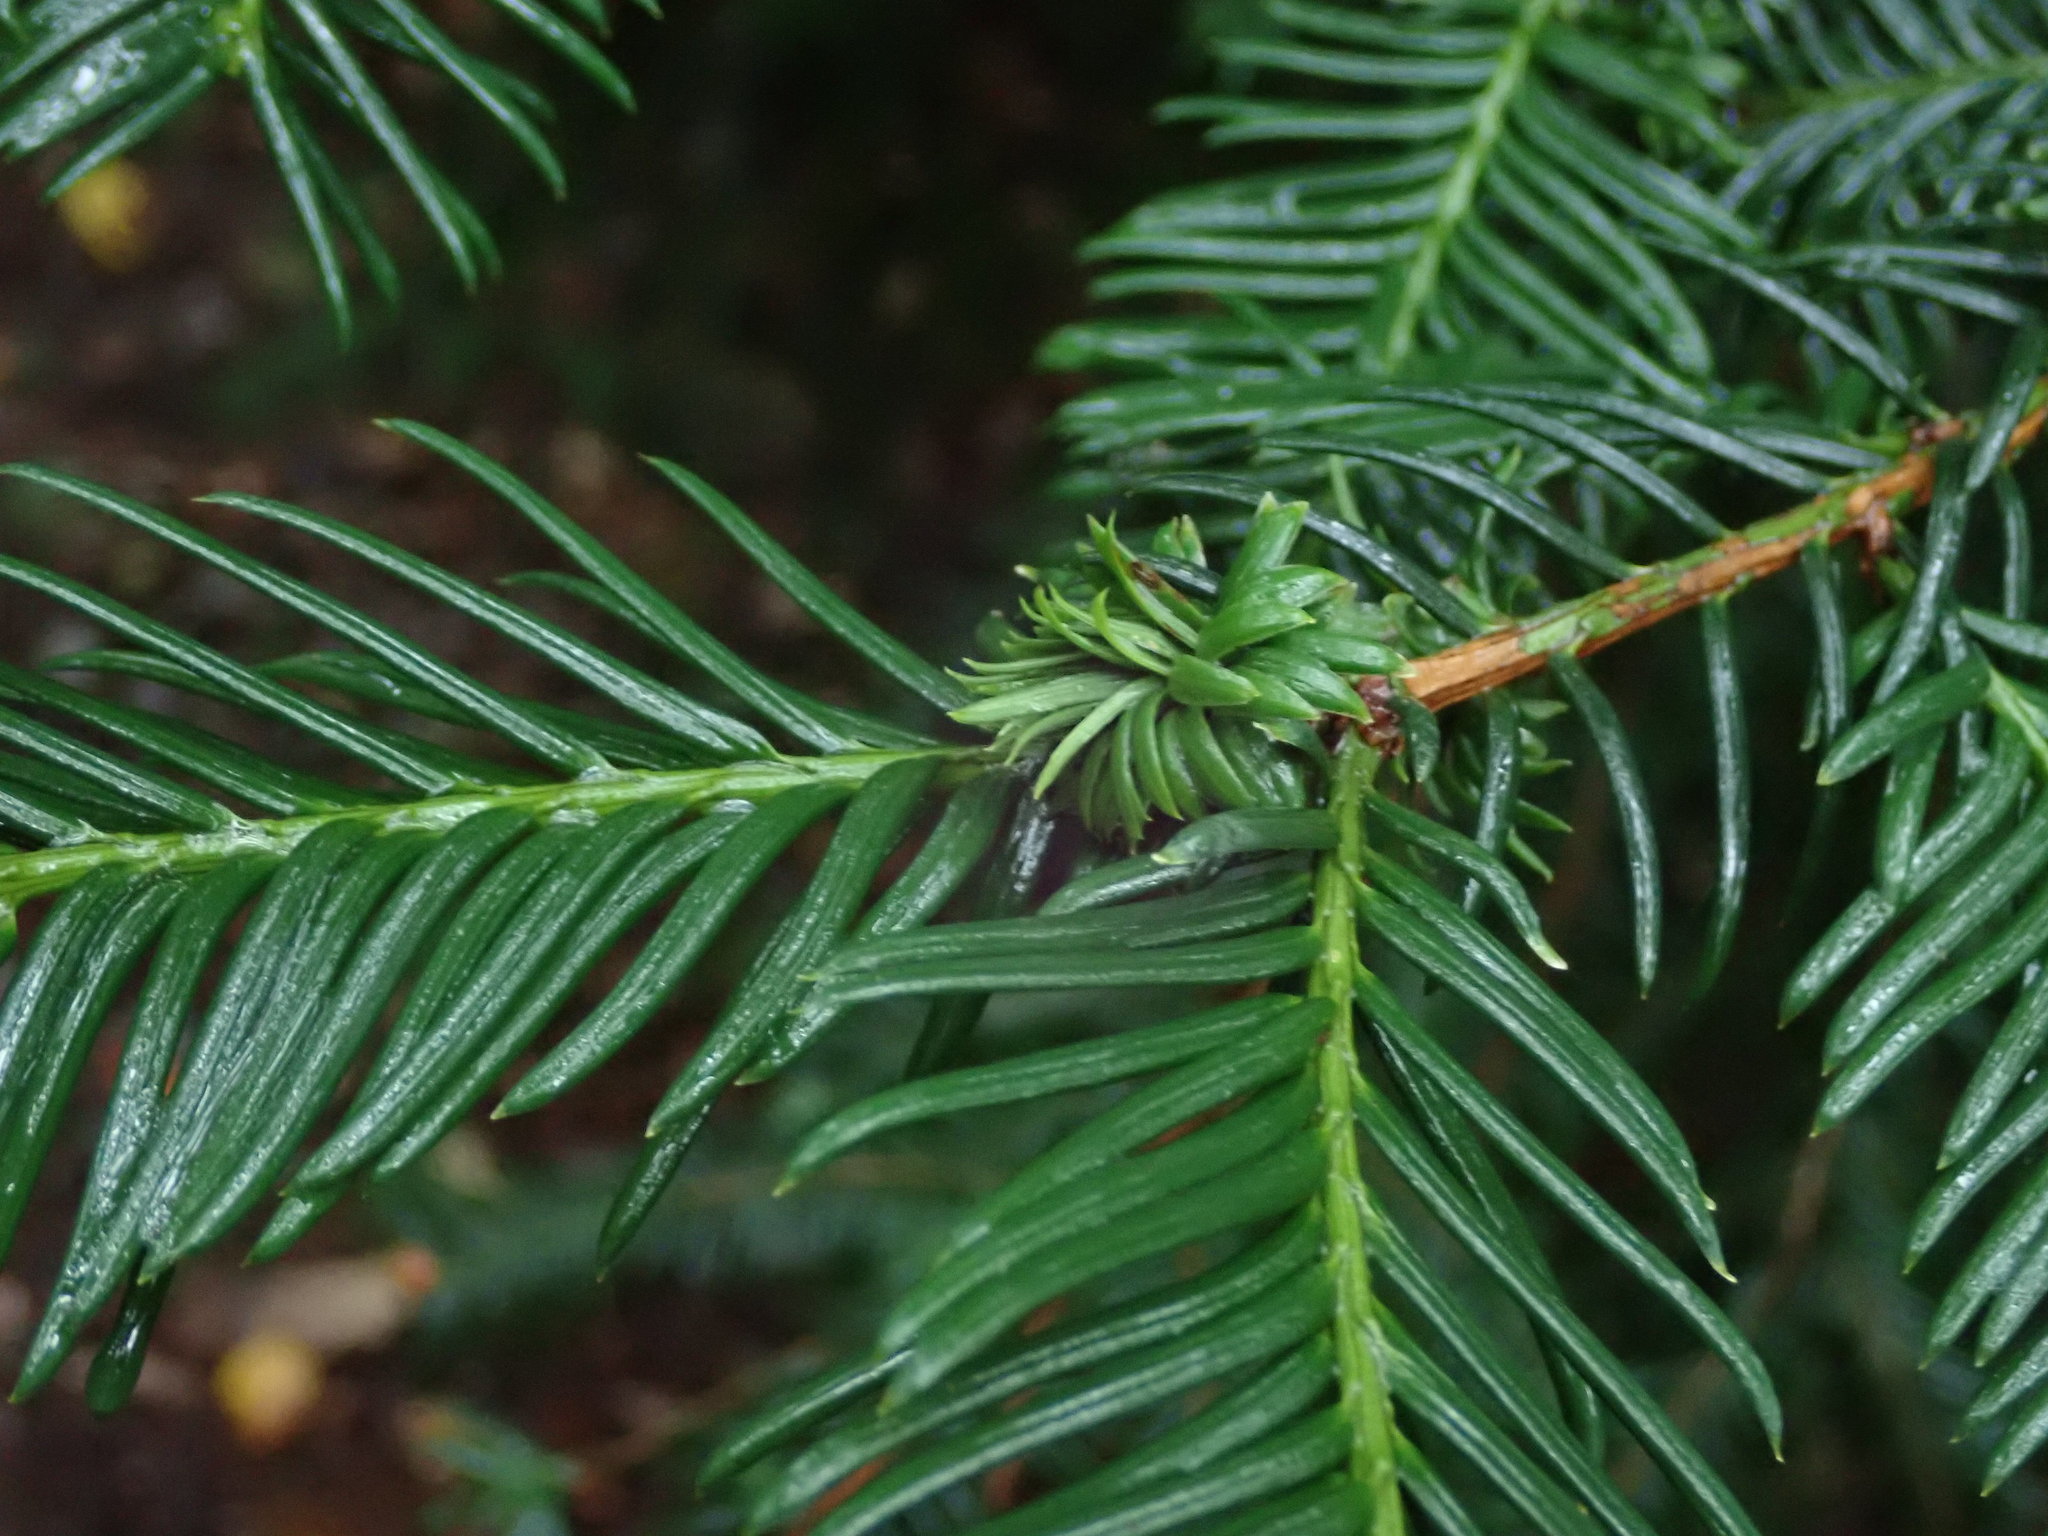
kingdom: Plantae
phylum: Tracheophyta
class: Pinopsida
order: Pinales
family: Taxaceae
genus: Taxus
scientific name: Taxus baccata
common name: Yew
